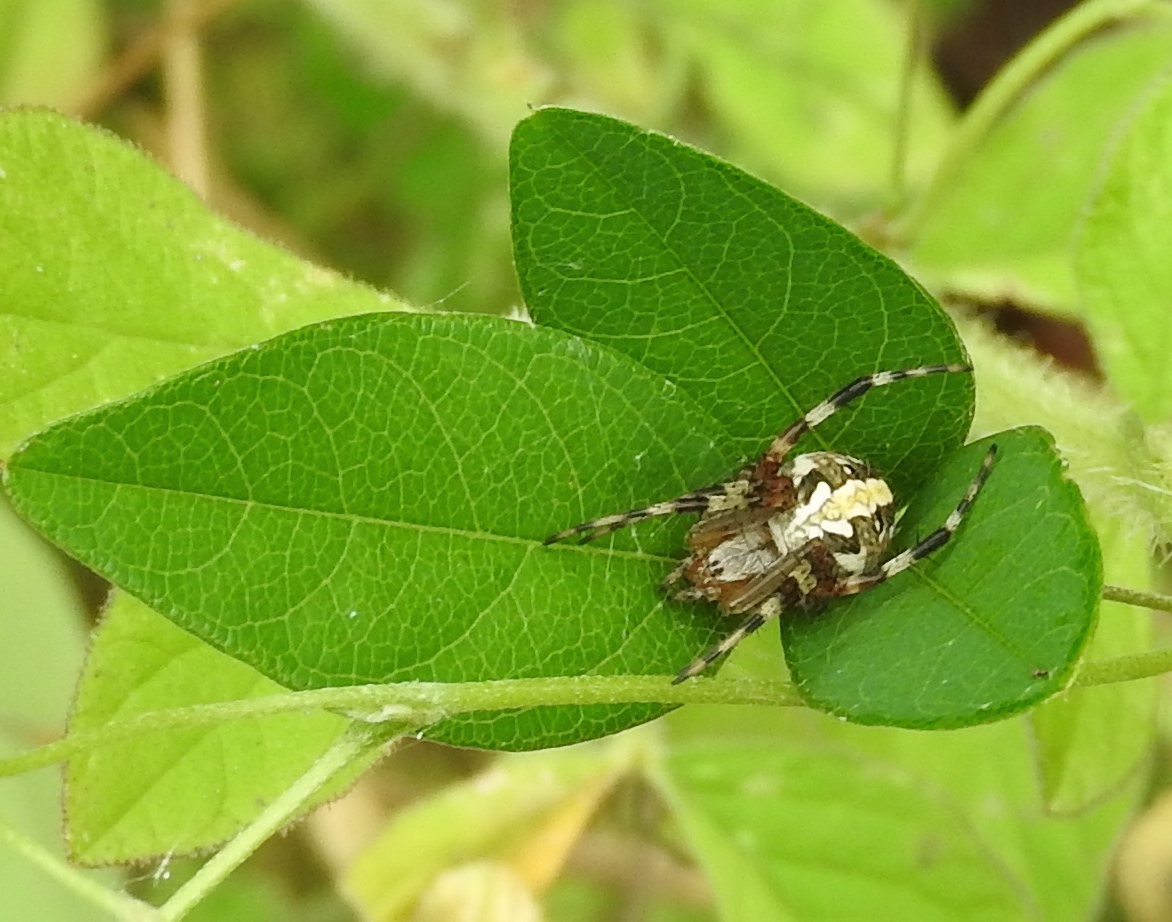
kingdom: Animalia
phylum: Arthropoda
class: Arachnida
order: Araneae
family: Araneidae
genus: Neoscona
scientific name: Neoscona
